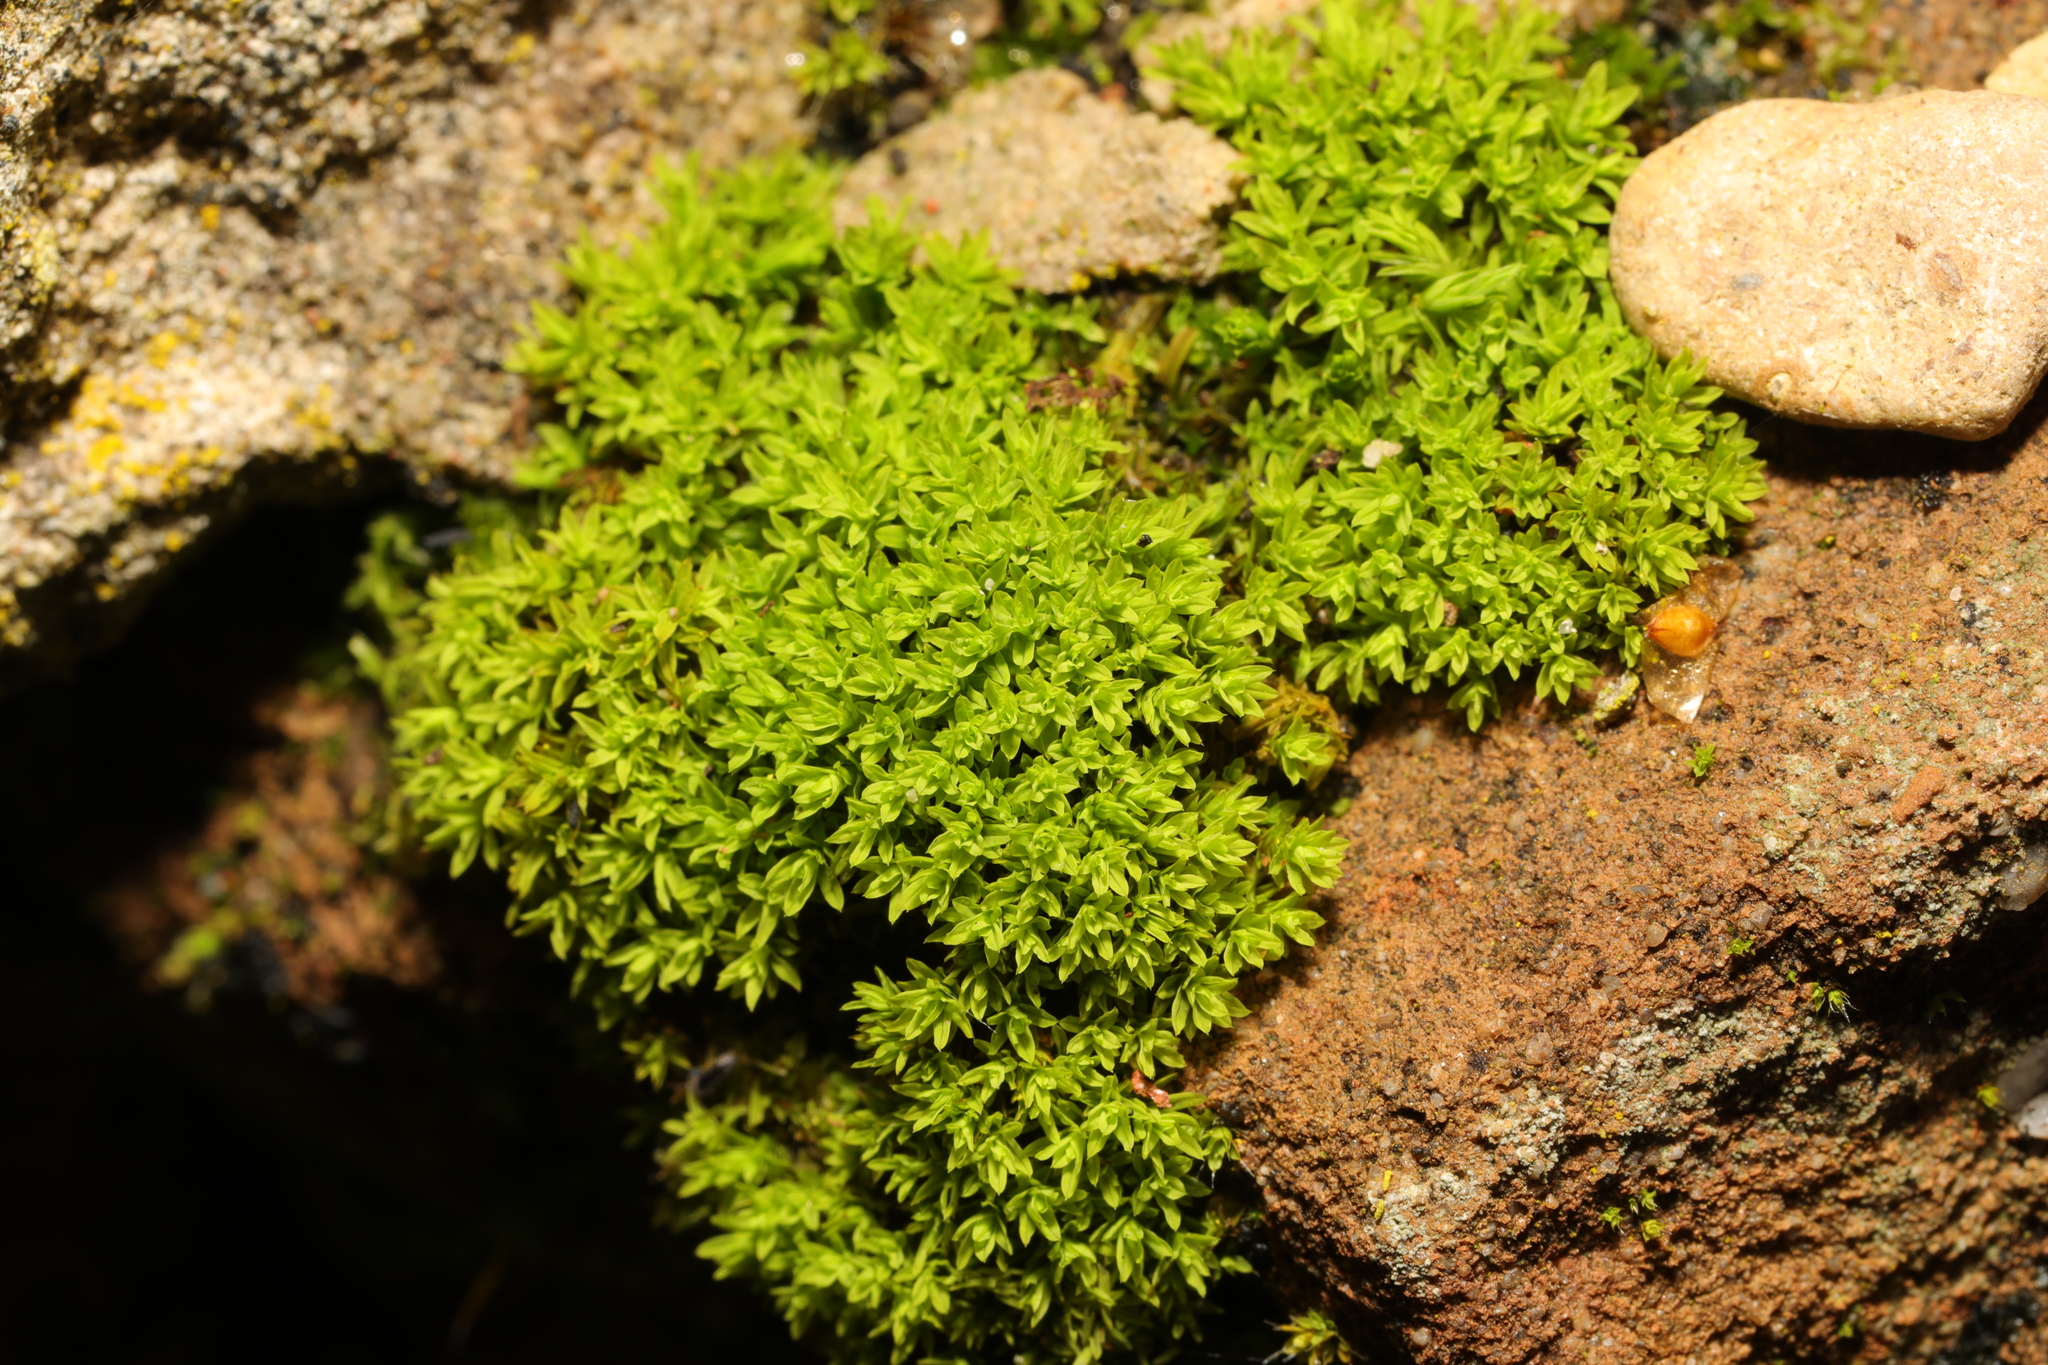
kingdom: Plantae
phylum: Bryophyta
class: Bryopsida
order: Pottiales
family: Pottiaceae
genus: Barbula
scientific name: Barbula unguiculata
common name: Prickly beard moss
